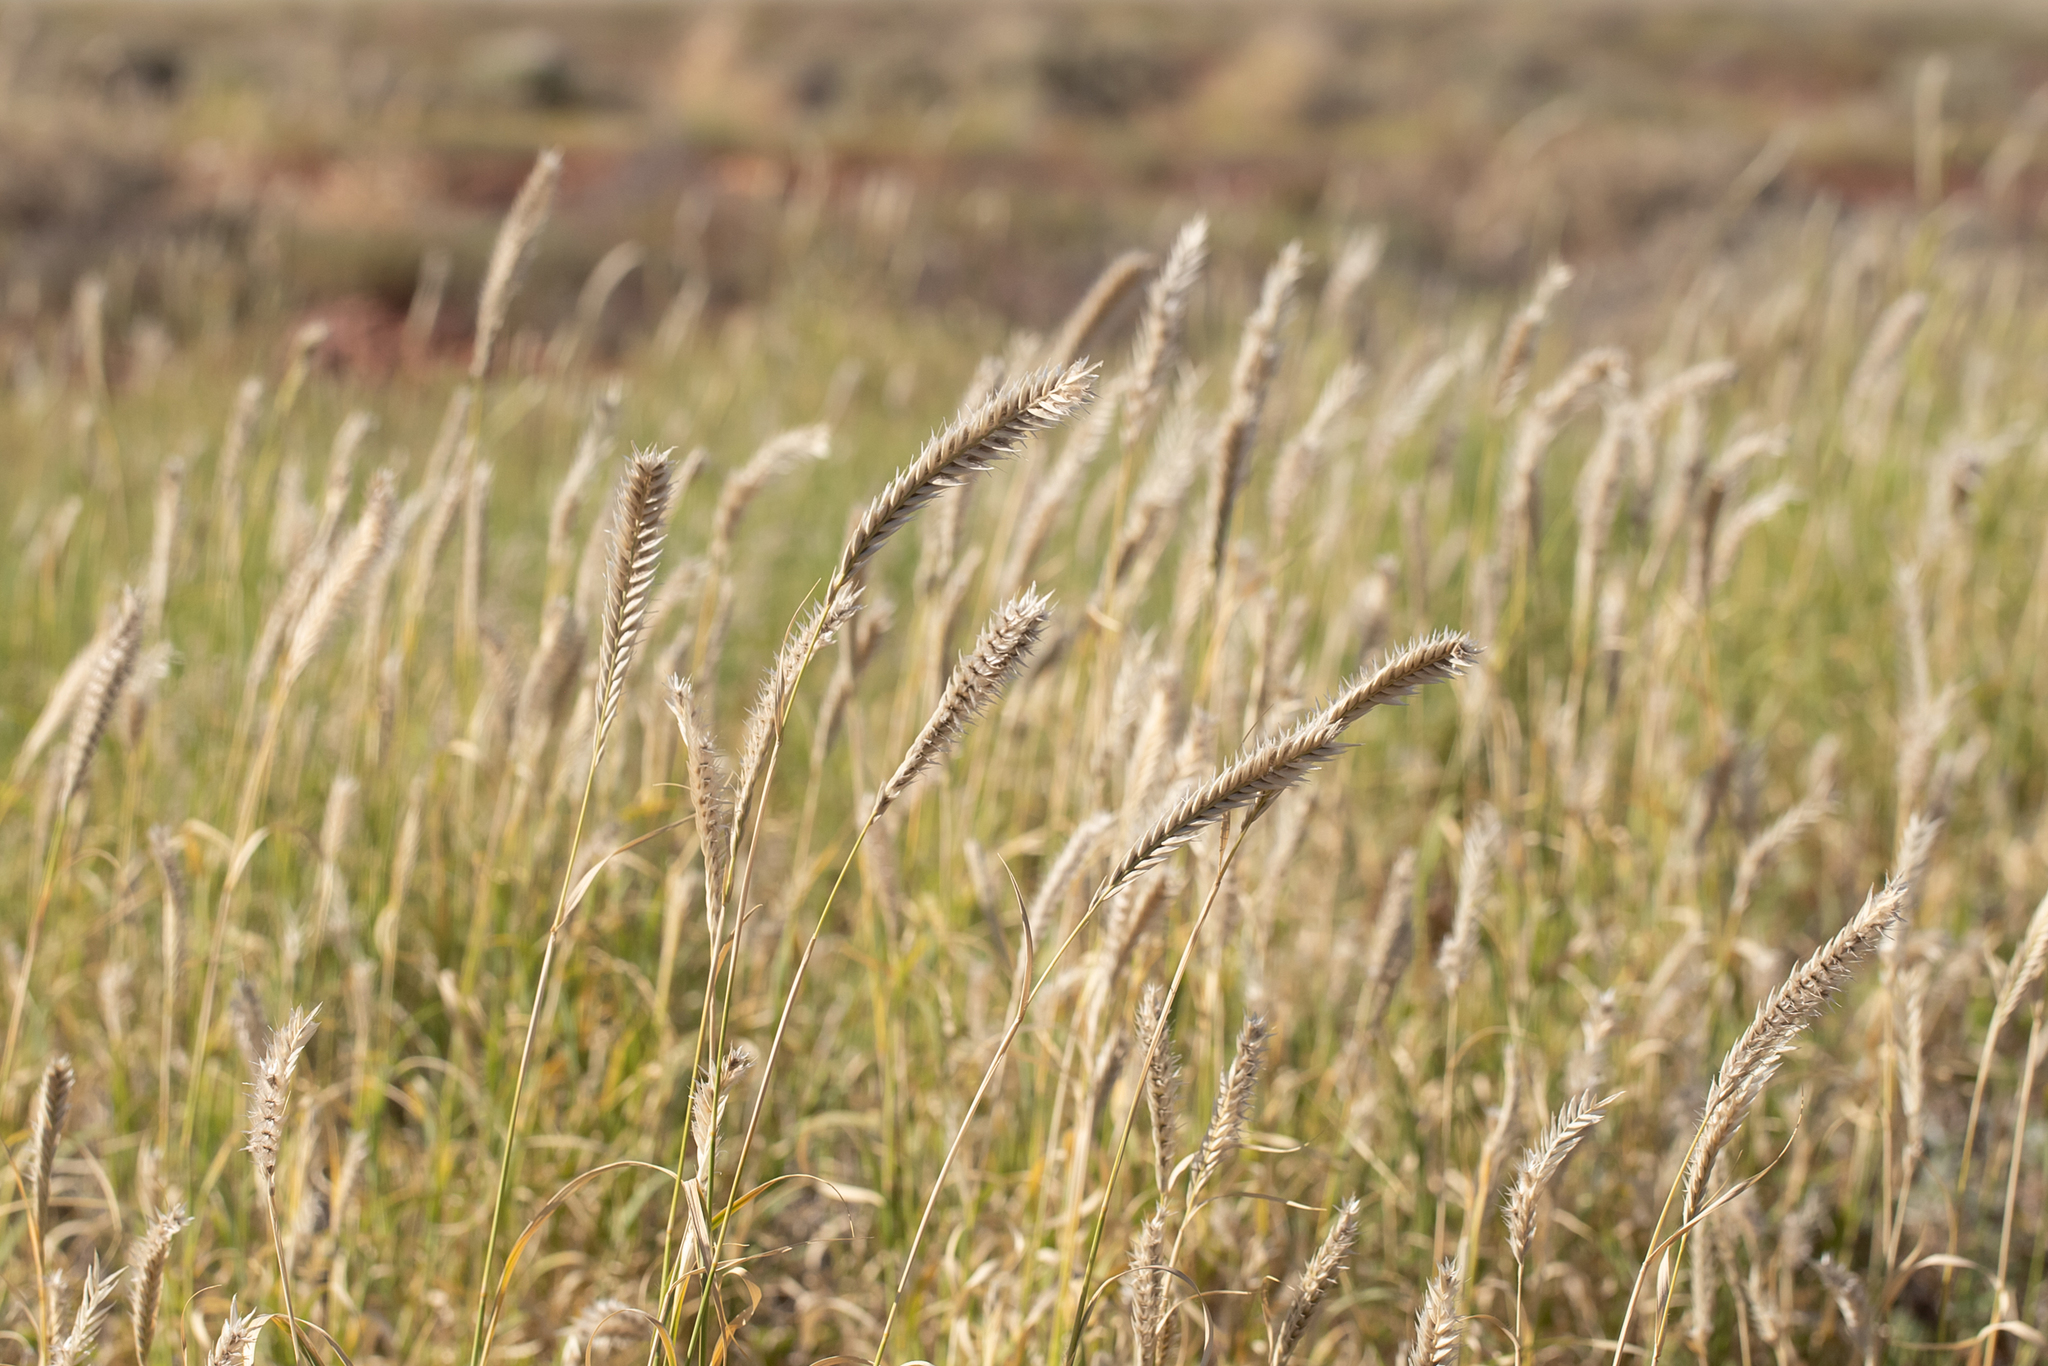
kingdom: Plantae
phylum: Tracheophyta
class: Liliopsida
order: Poales
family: Poaceae
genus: Astrebla
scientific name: Astrebla pectinata
